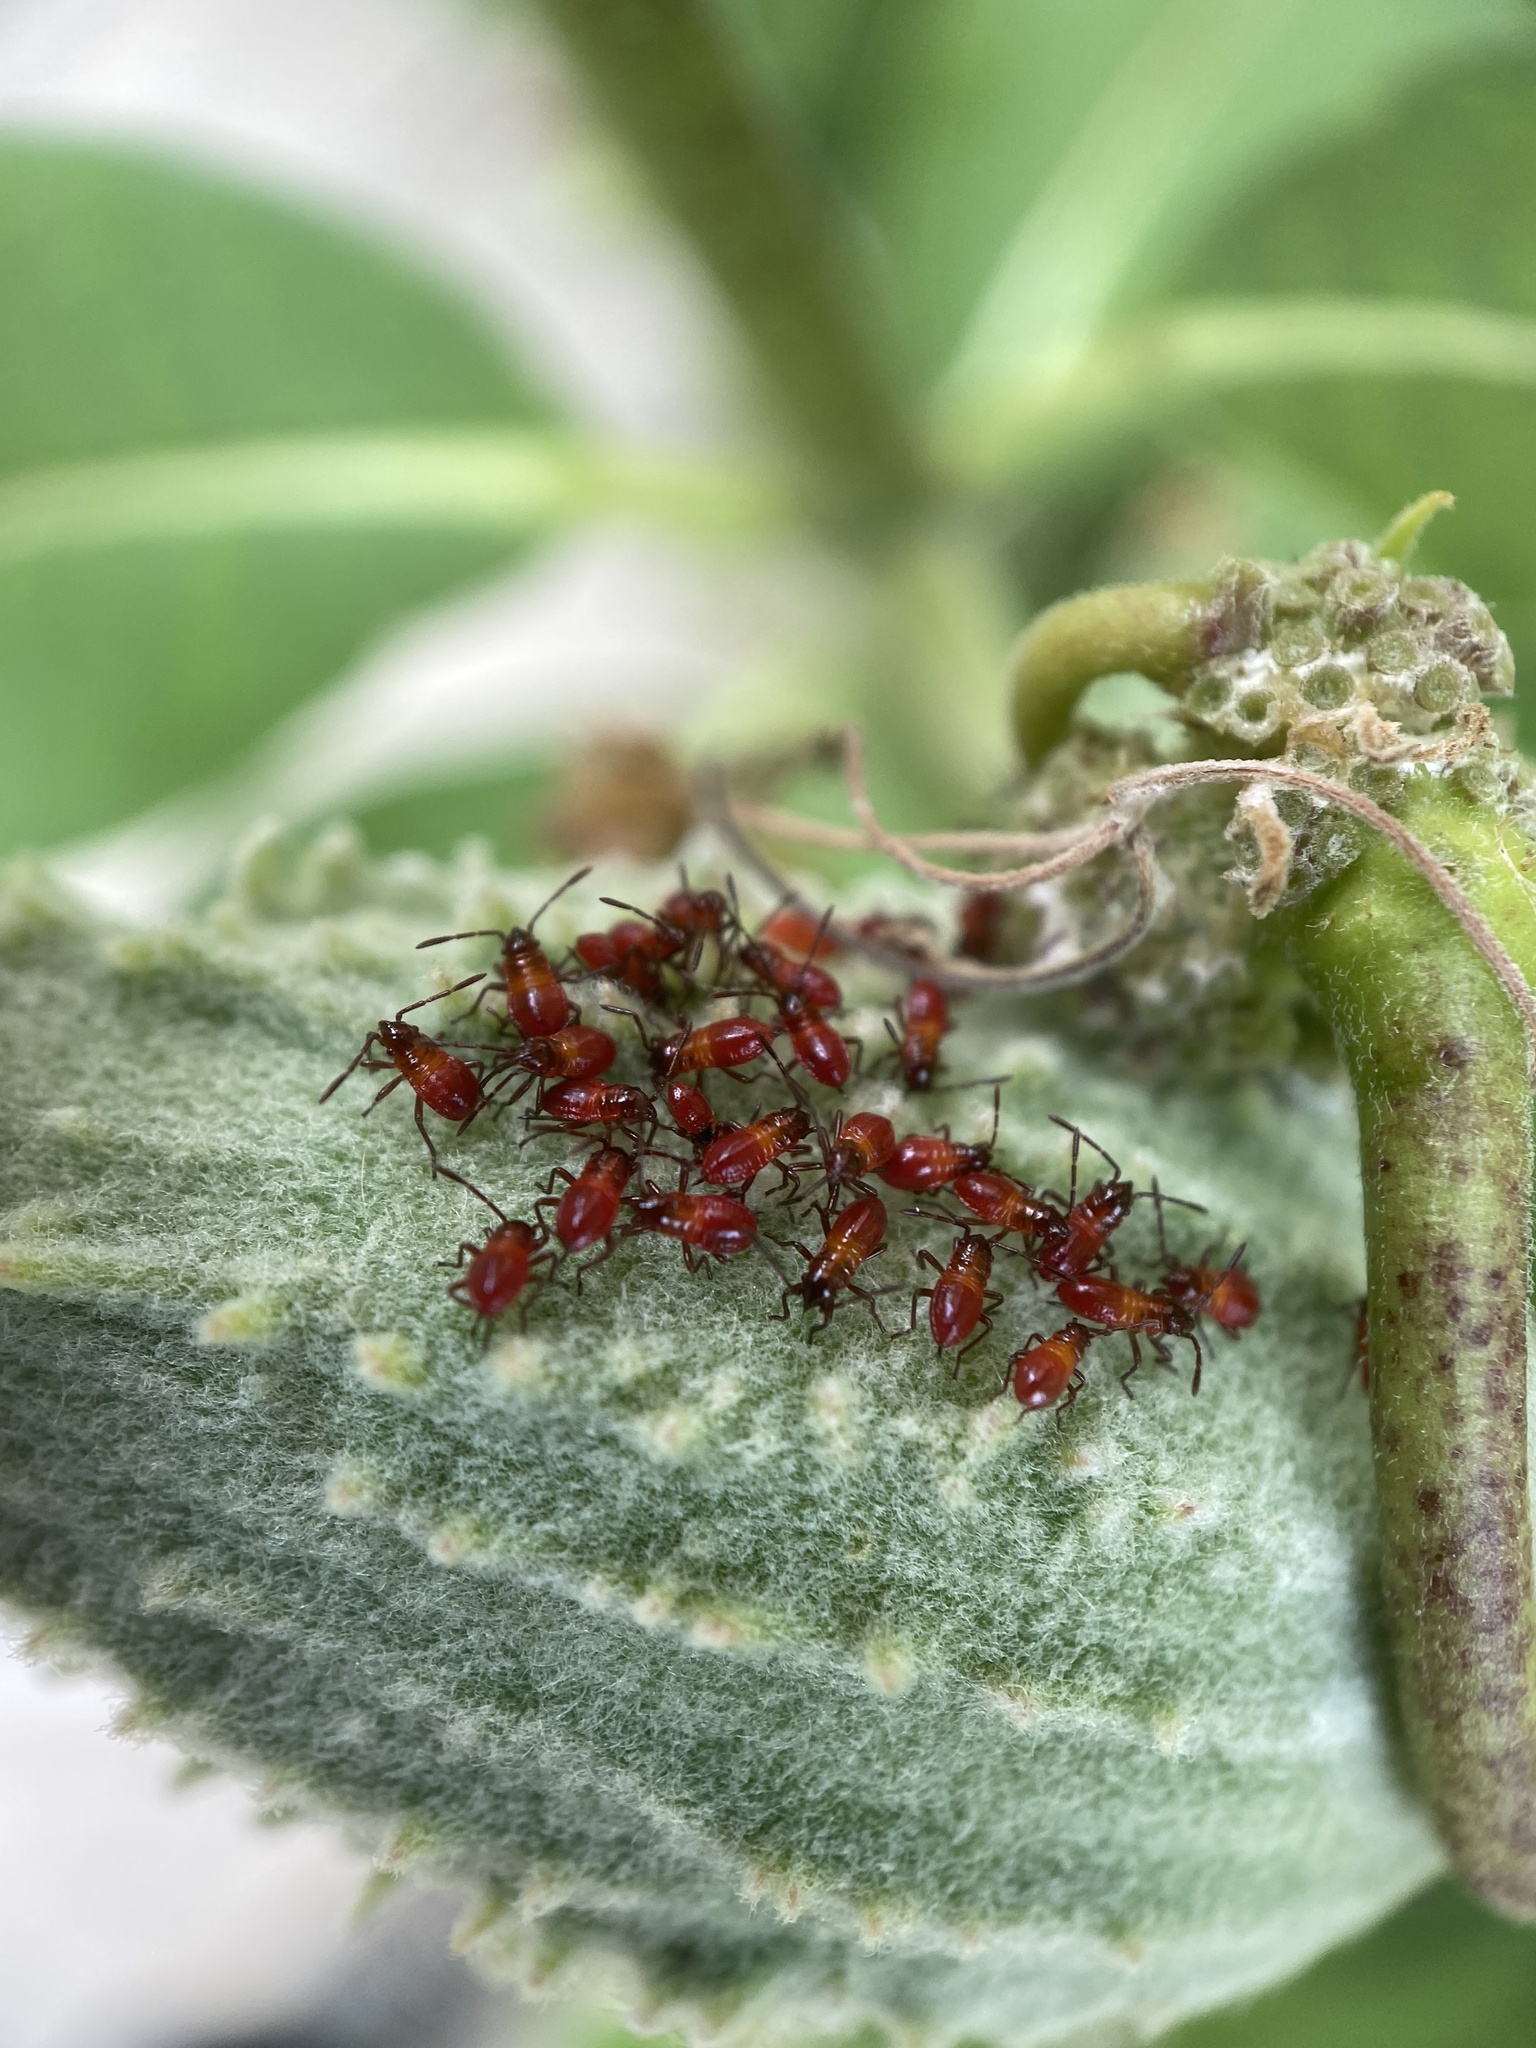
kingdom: Animalia
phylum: Arthropoda
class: Insecta
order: Hemiptera
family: Lygaeidae
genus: Oncopeltus
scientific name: Oncopeltus fasciatus
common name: Large milkweed bug
